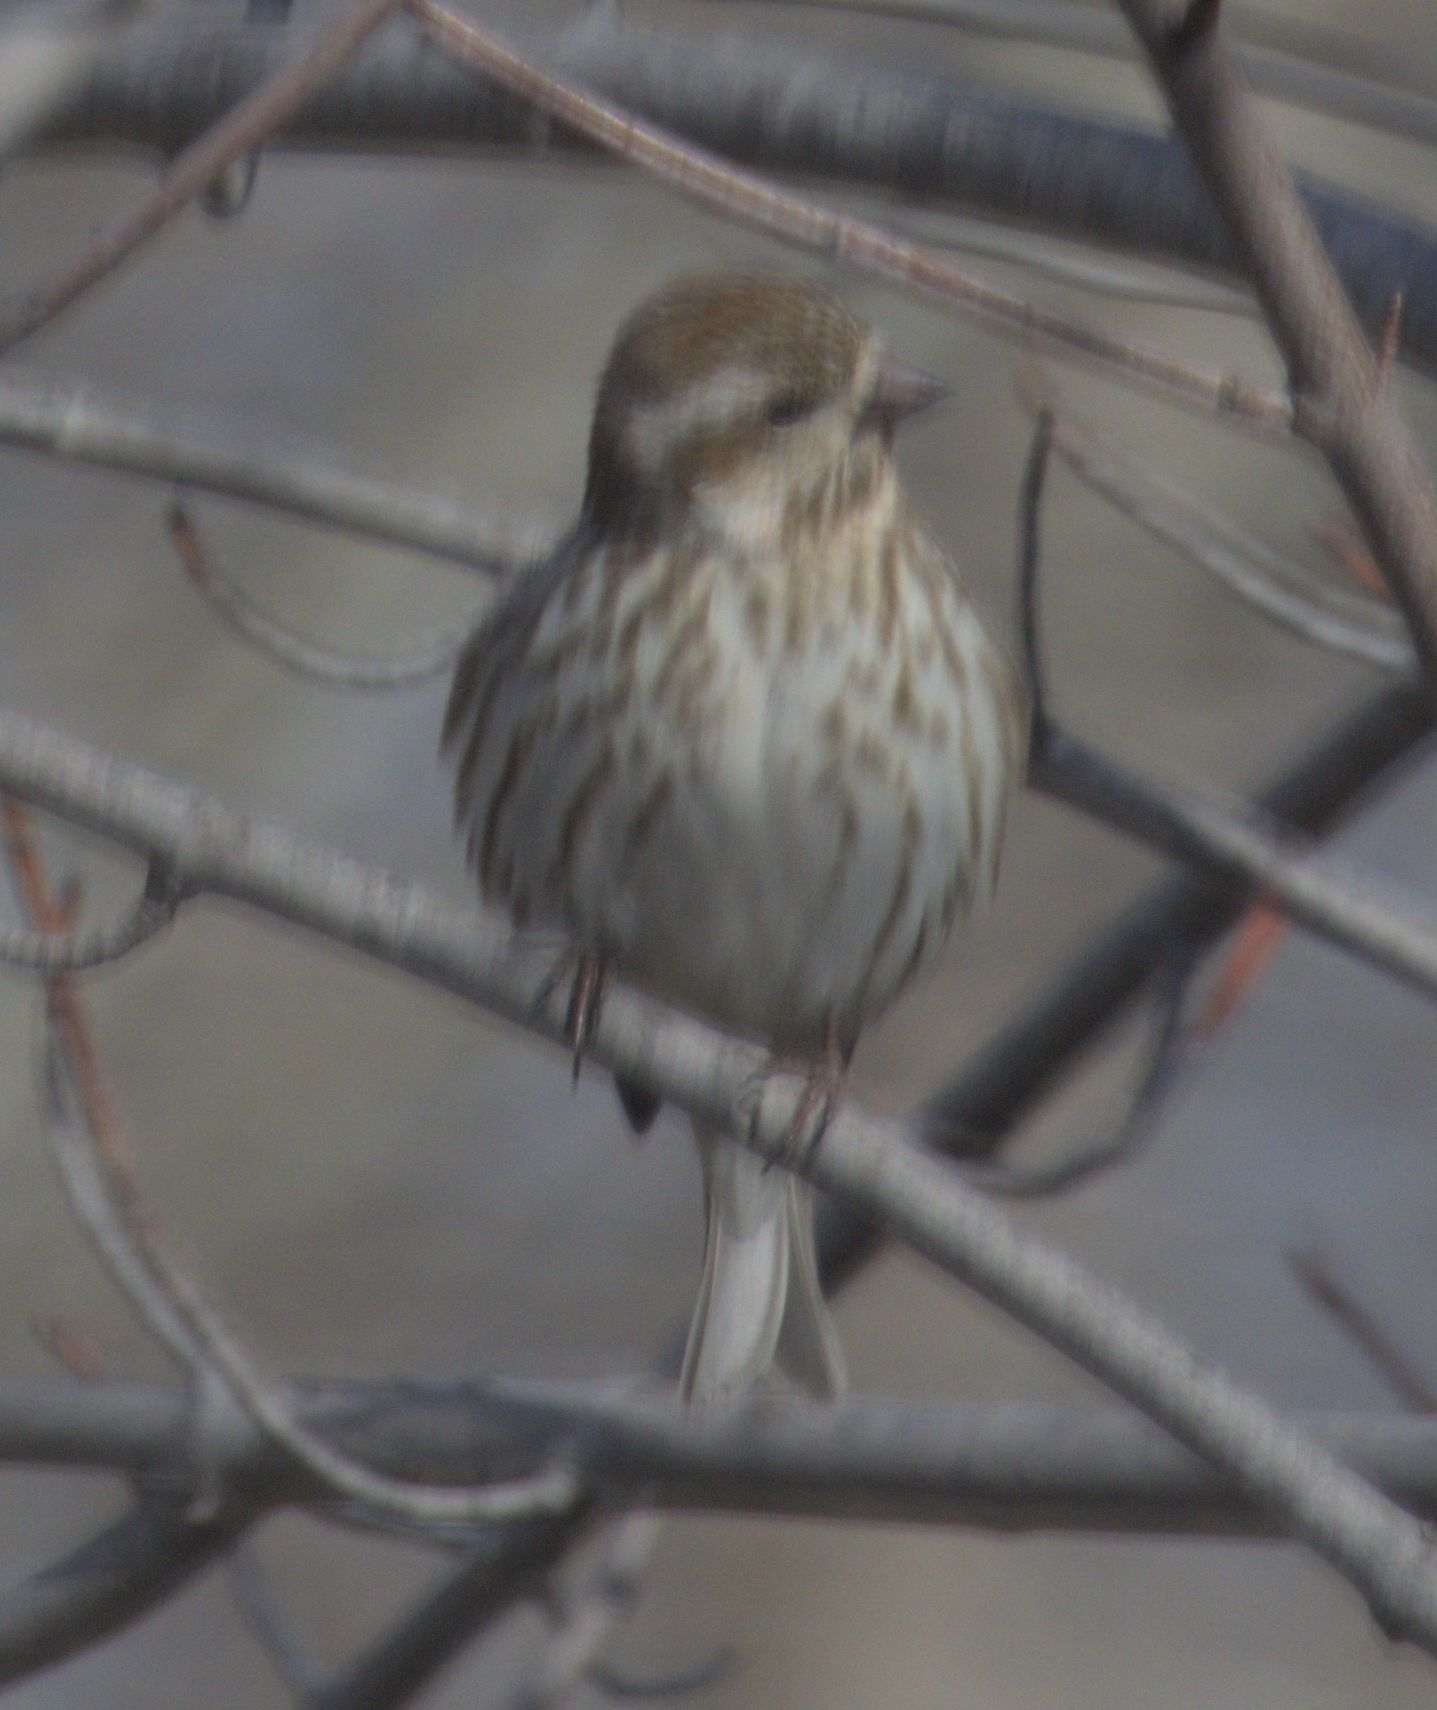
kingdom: Animalia
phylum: Chordata
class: Aves
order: Passeriformes
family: Fringillidae
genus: Haemorhous
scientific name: Haemorhous purpureus
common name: Purple finch
